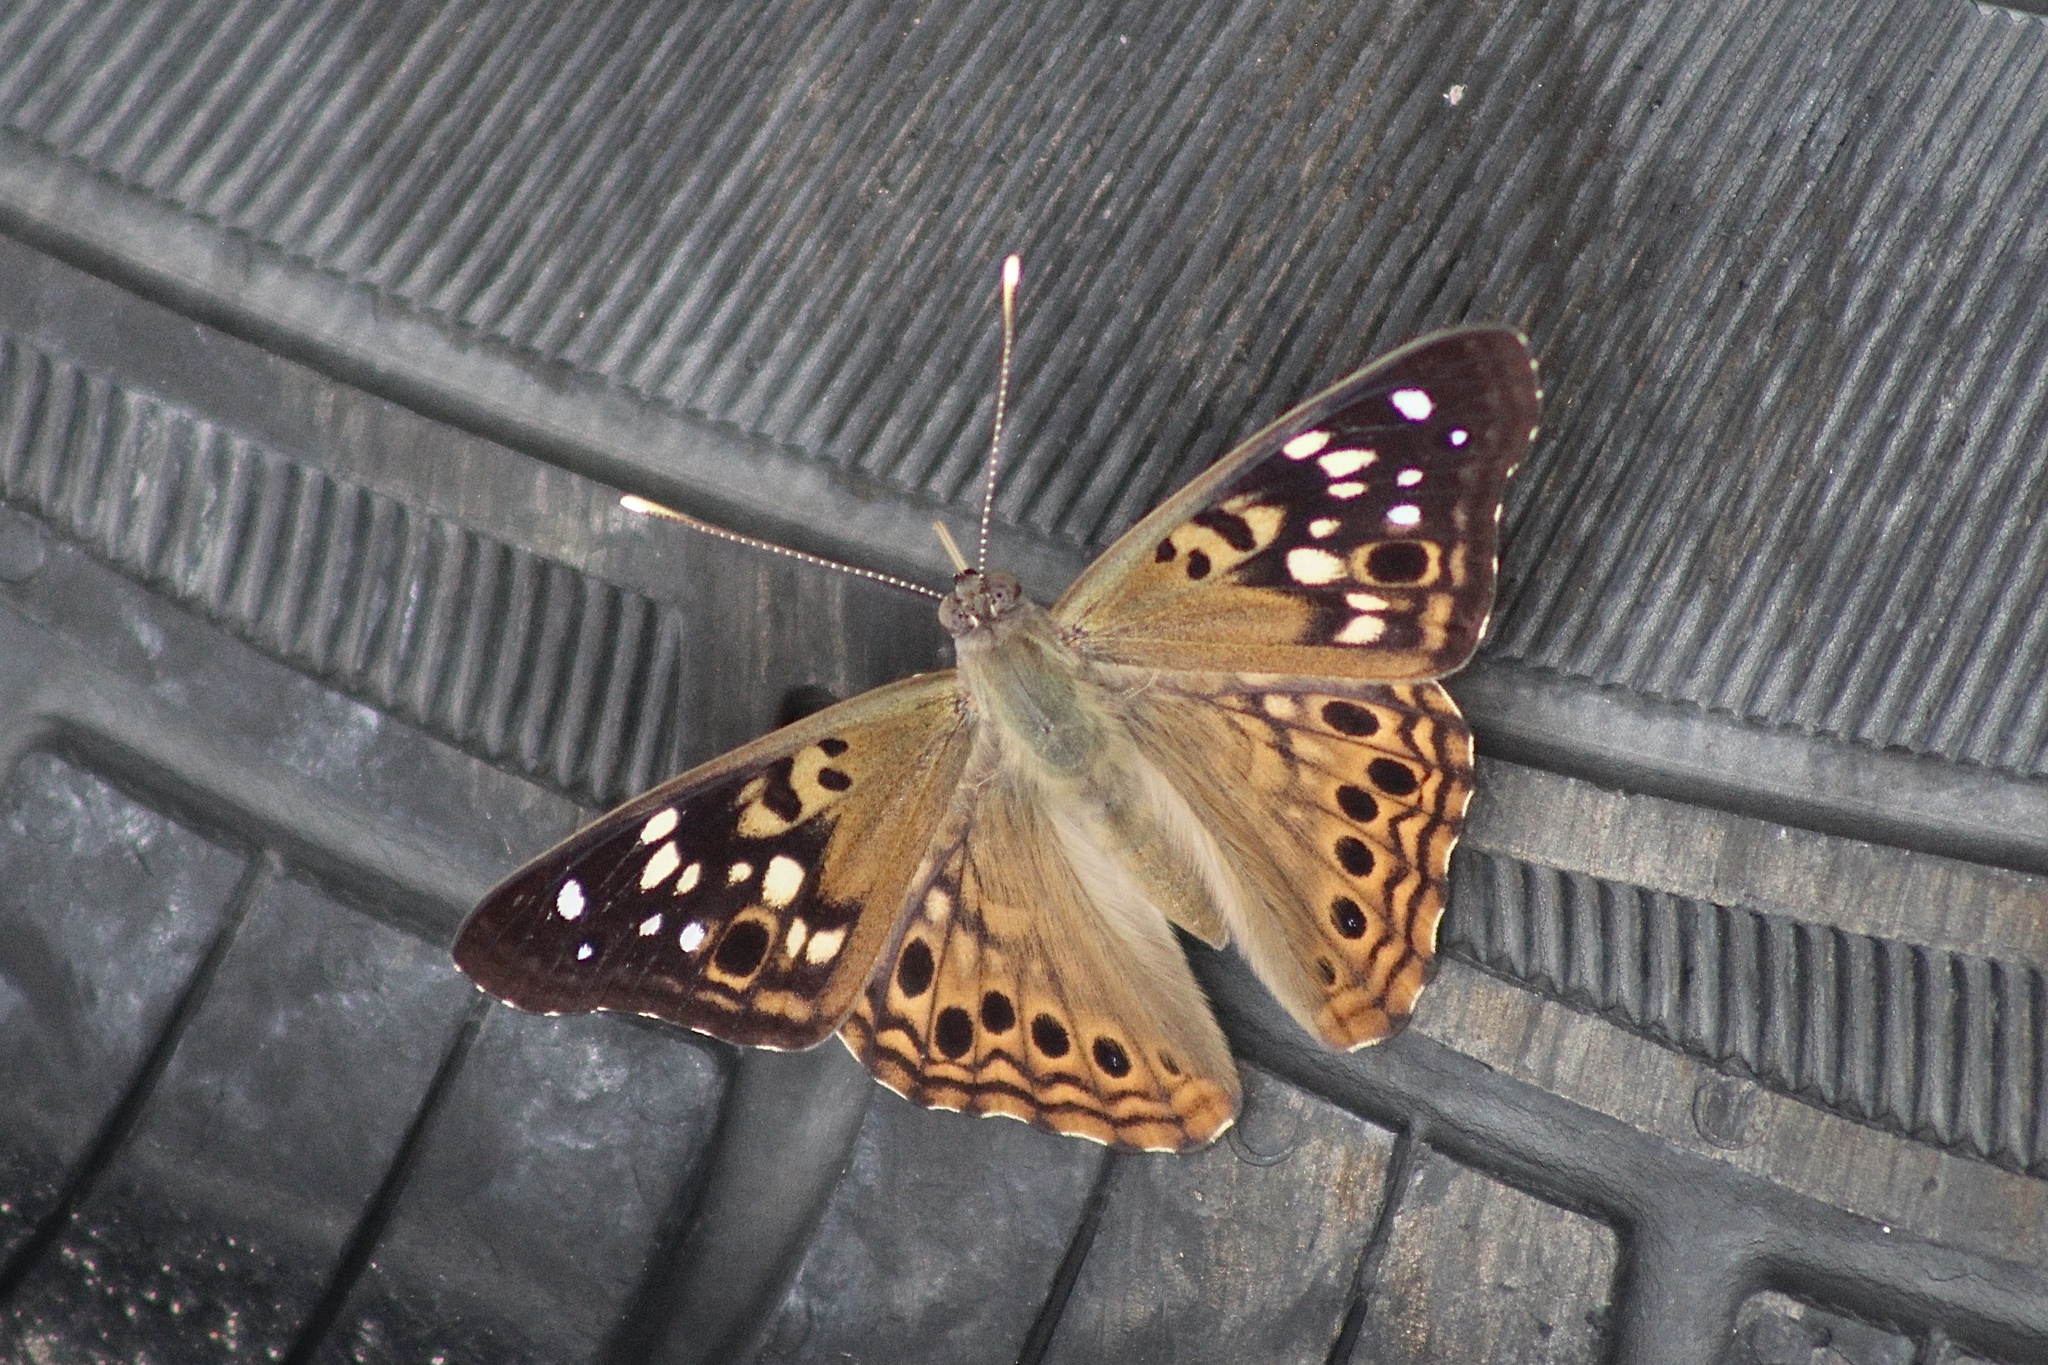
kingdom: Animalia
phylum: Arthropoda
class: Insecta
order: Lepidoptera
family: Nymphalidae
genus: Asterocampa
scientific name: Asterocampa celtis
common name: Hackberry emperor
